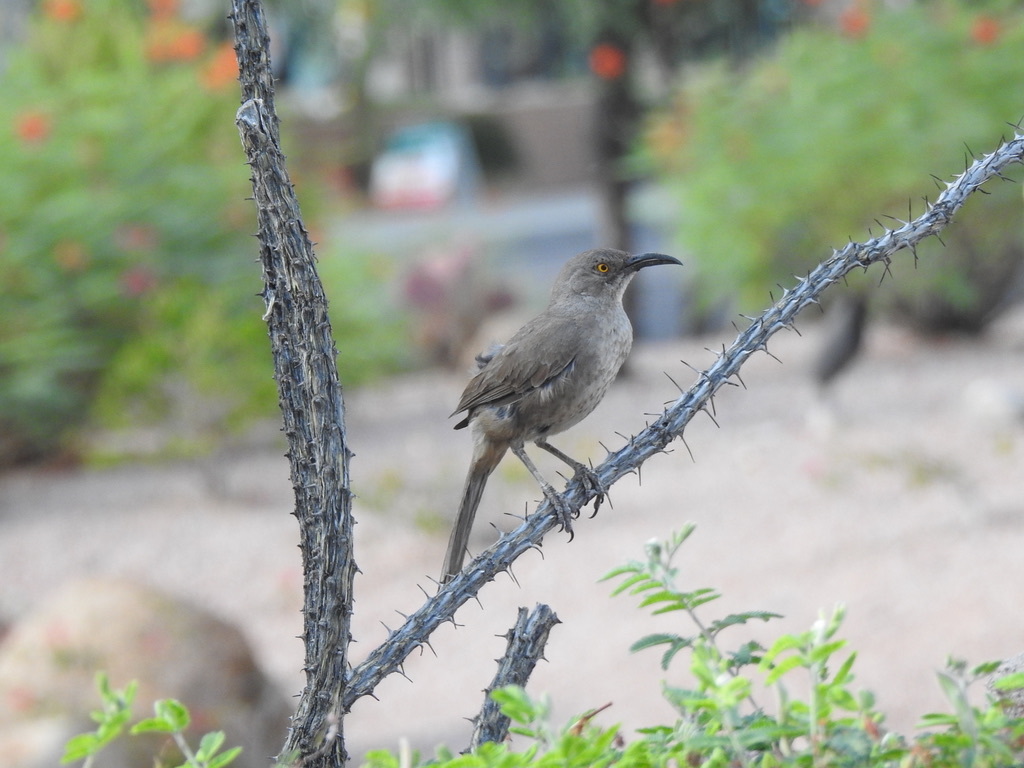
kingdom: Animalia
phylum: Chordata
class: Aves
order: Passeriformes
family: Mimidae
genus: Toxostoma
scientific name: Toxostoma curvirostre
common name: Curve-billed thrasher
